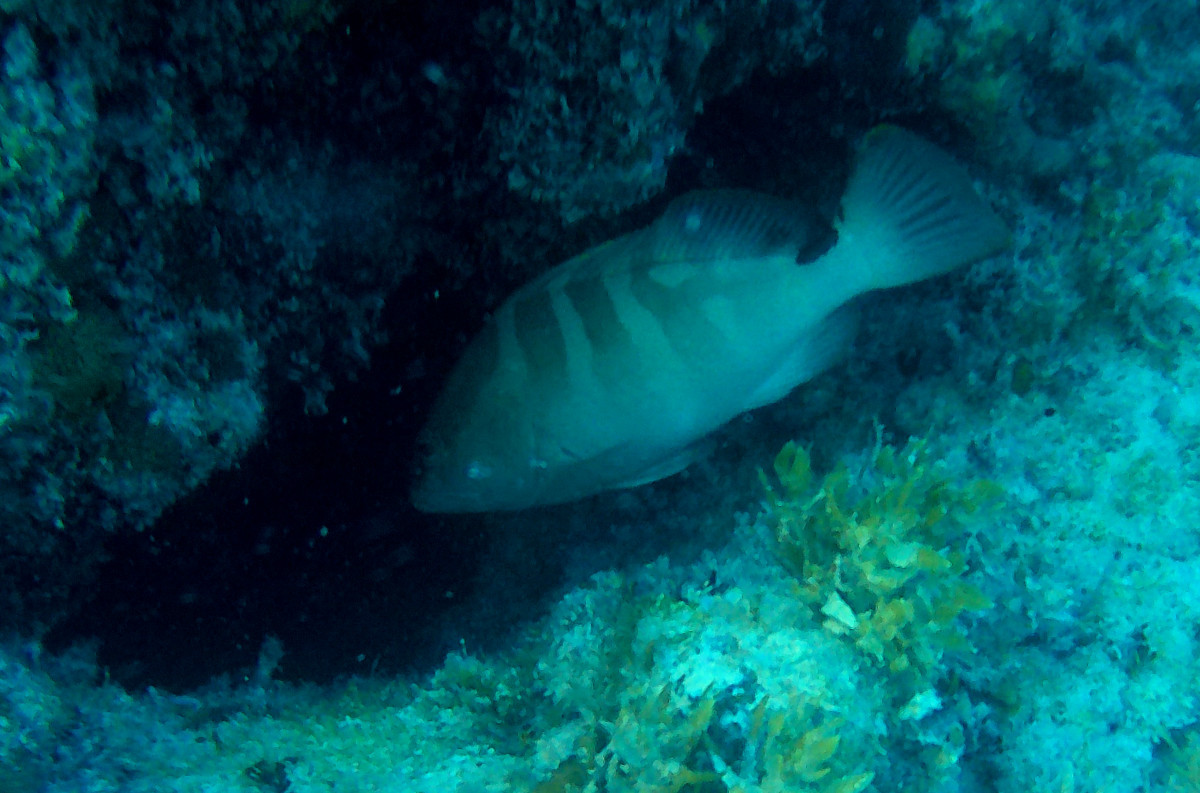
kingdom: Animalia
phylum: Chordata
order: Perciformes
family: Serranidae
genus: Epinephelus
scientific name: Epinephelus striatus
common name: Nassau grouper
